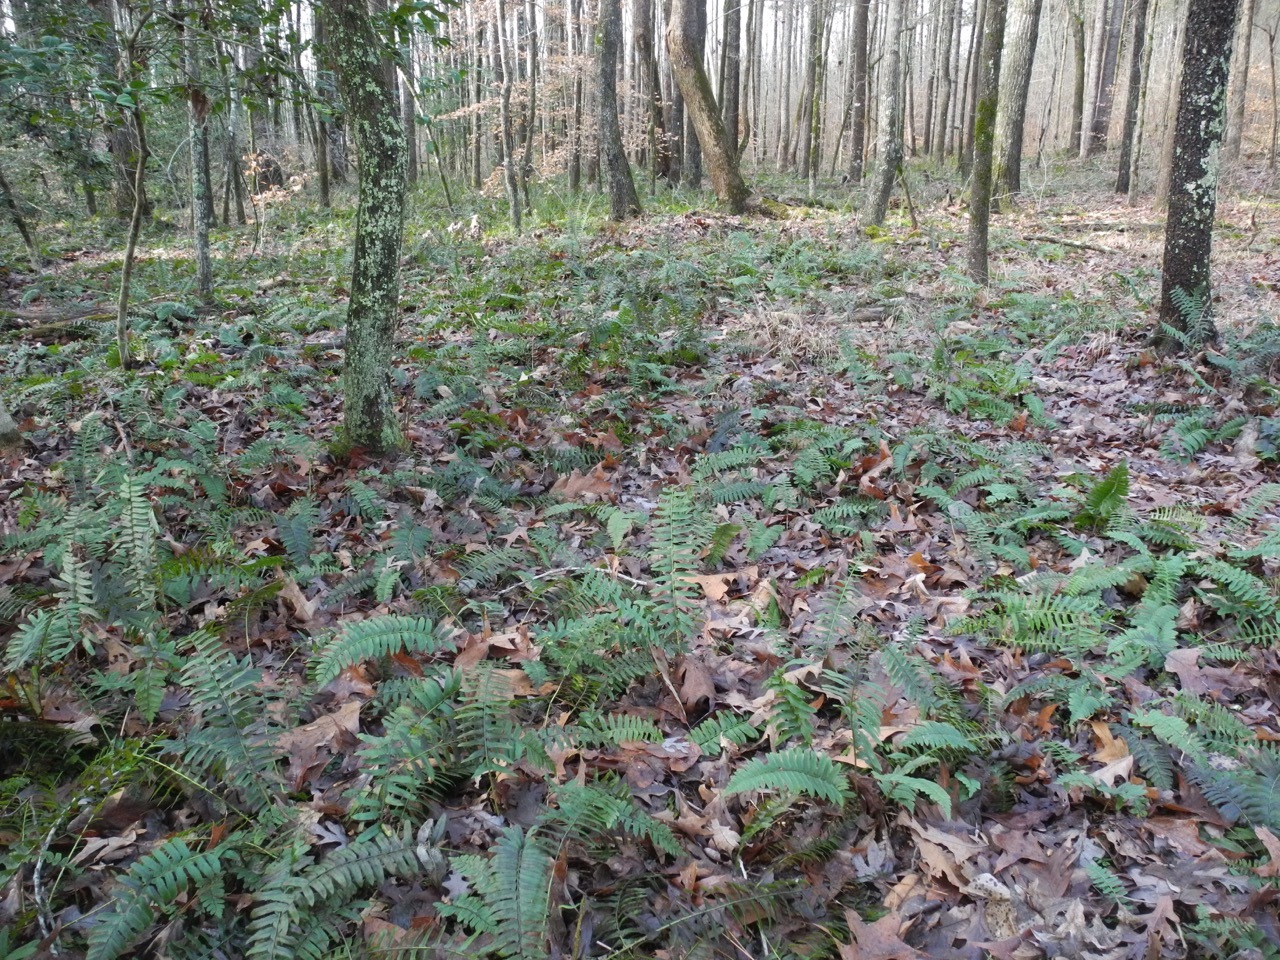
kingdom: Plantae
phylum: Tracheophyta
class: Polypodiopsida
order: Polypodiales
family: Dryopteridaceae
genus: Polystichum
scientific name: Polystichum acrostichoides
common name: Christmas fern
